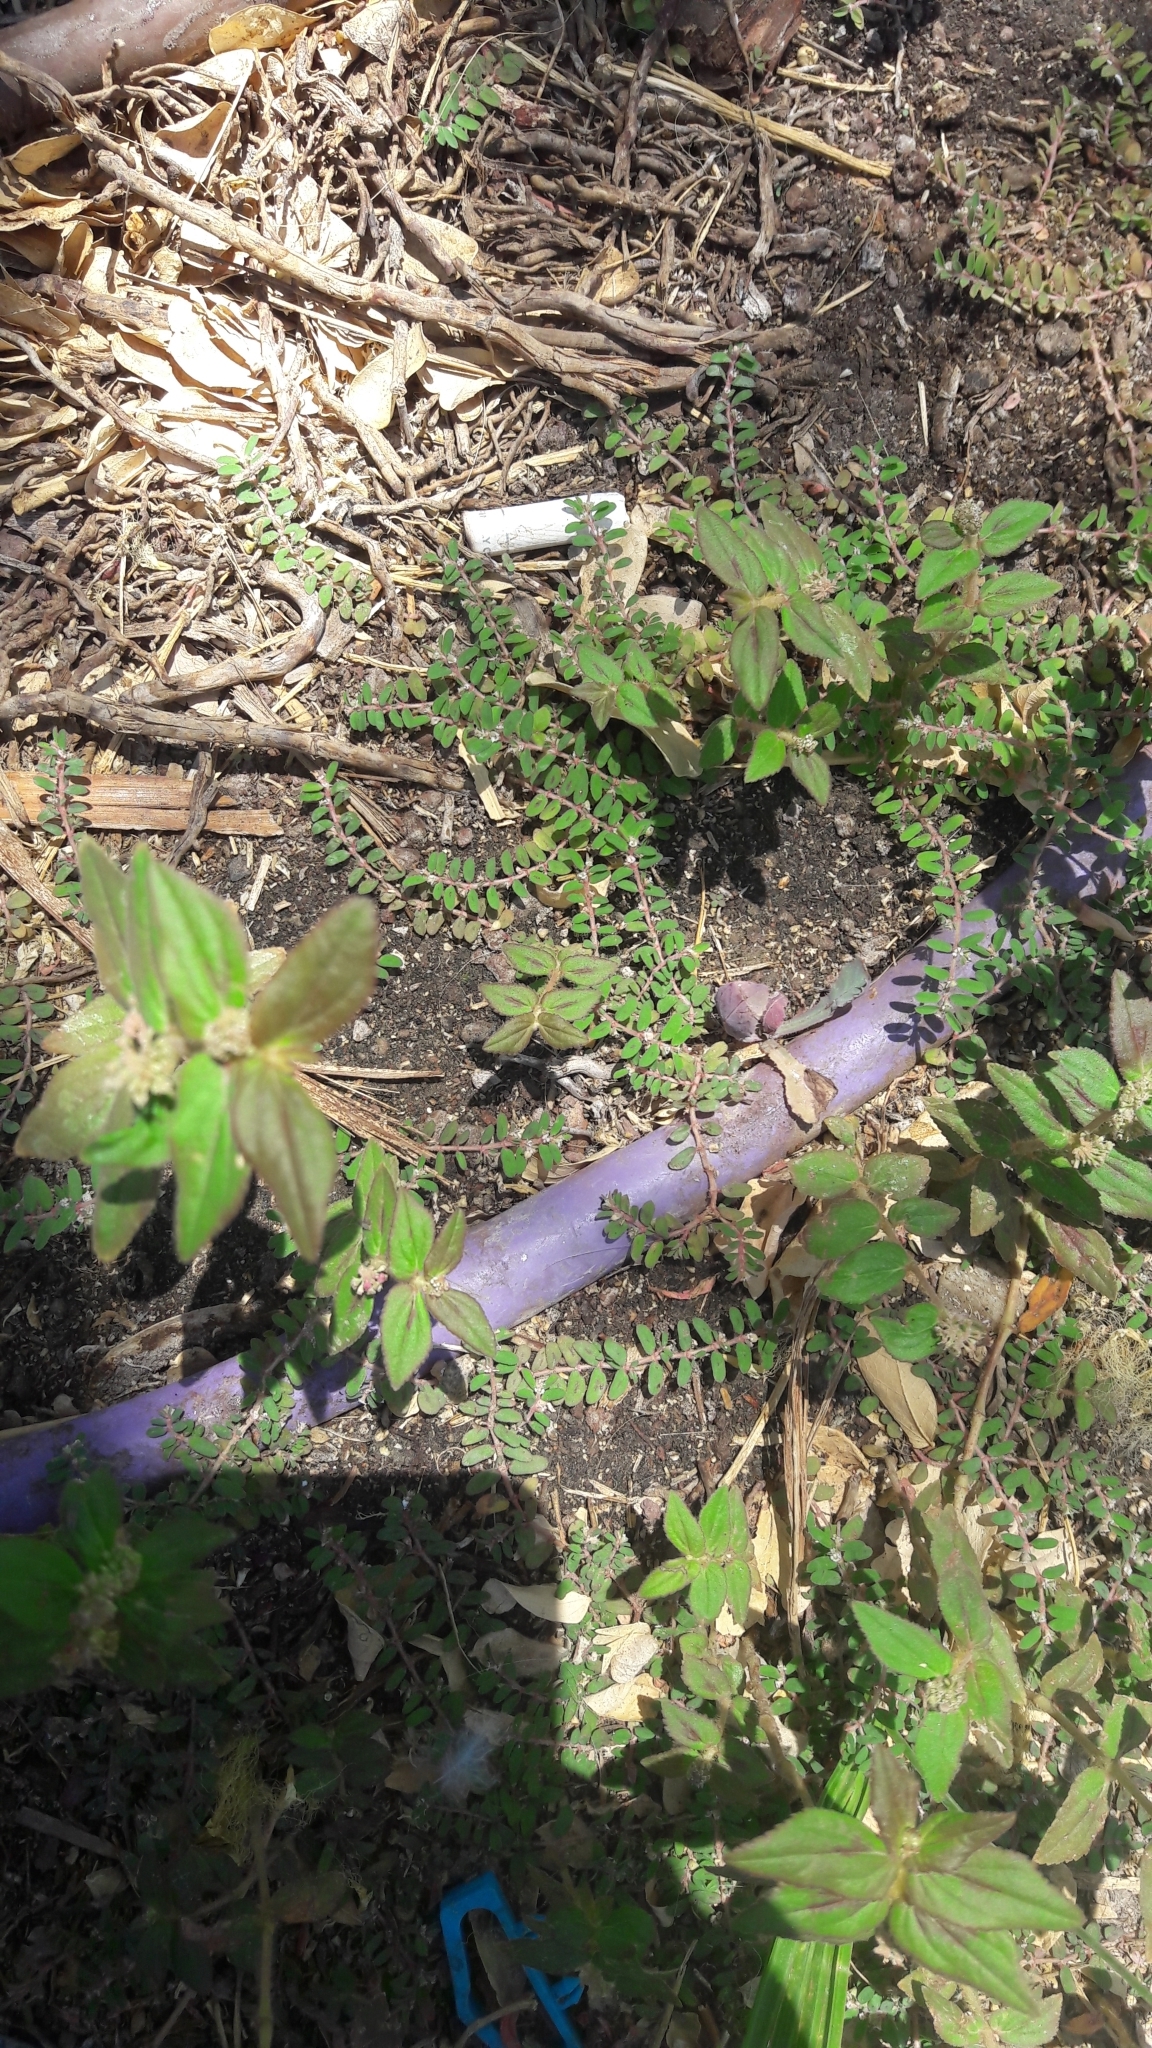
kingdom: Plantae
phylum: Tracheophyta
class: Magnoliopsida
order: Malpighiales
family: Euphorbiaceae
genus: Euphorbia
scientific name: Euphorbia maculata
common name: Spotted spurge
